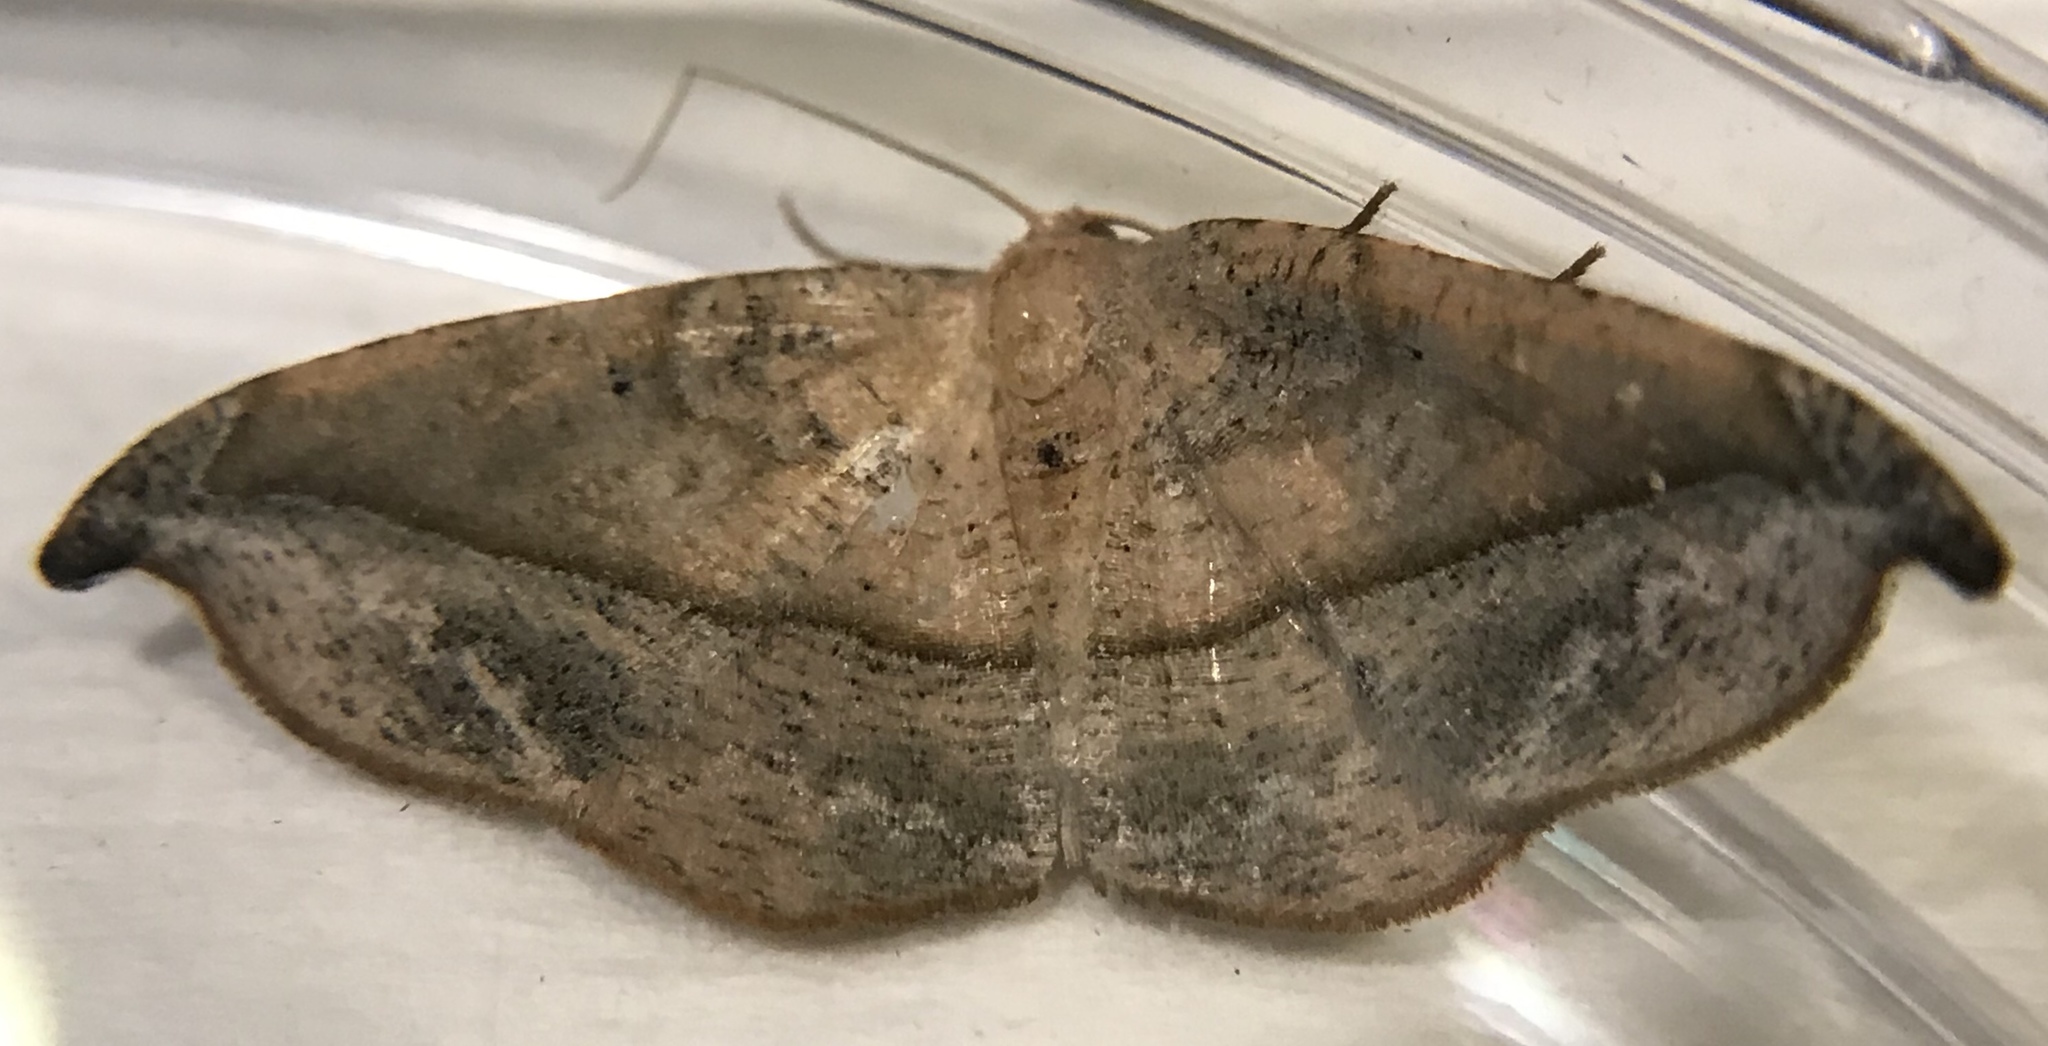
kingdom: Animalia
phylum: Arthropoda
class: Insecta
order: Lepidoptera
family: Geometridae
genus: Patalene
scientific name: Patalene olyzonaria
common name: Juniper geometer moth
